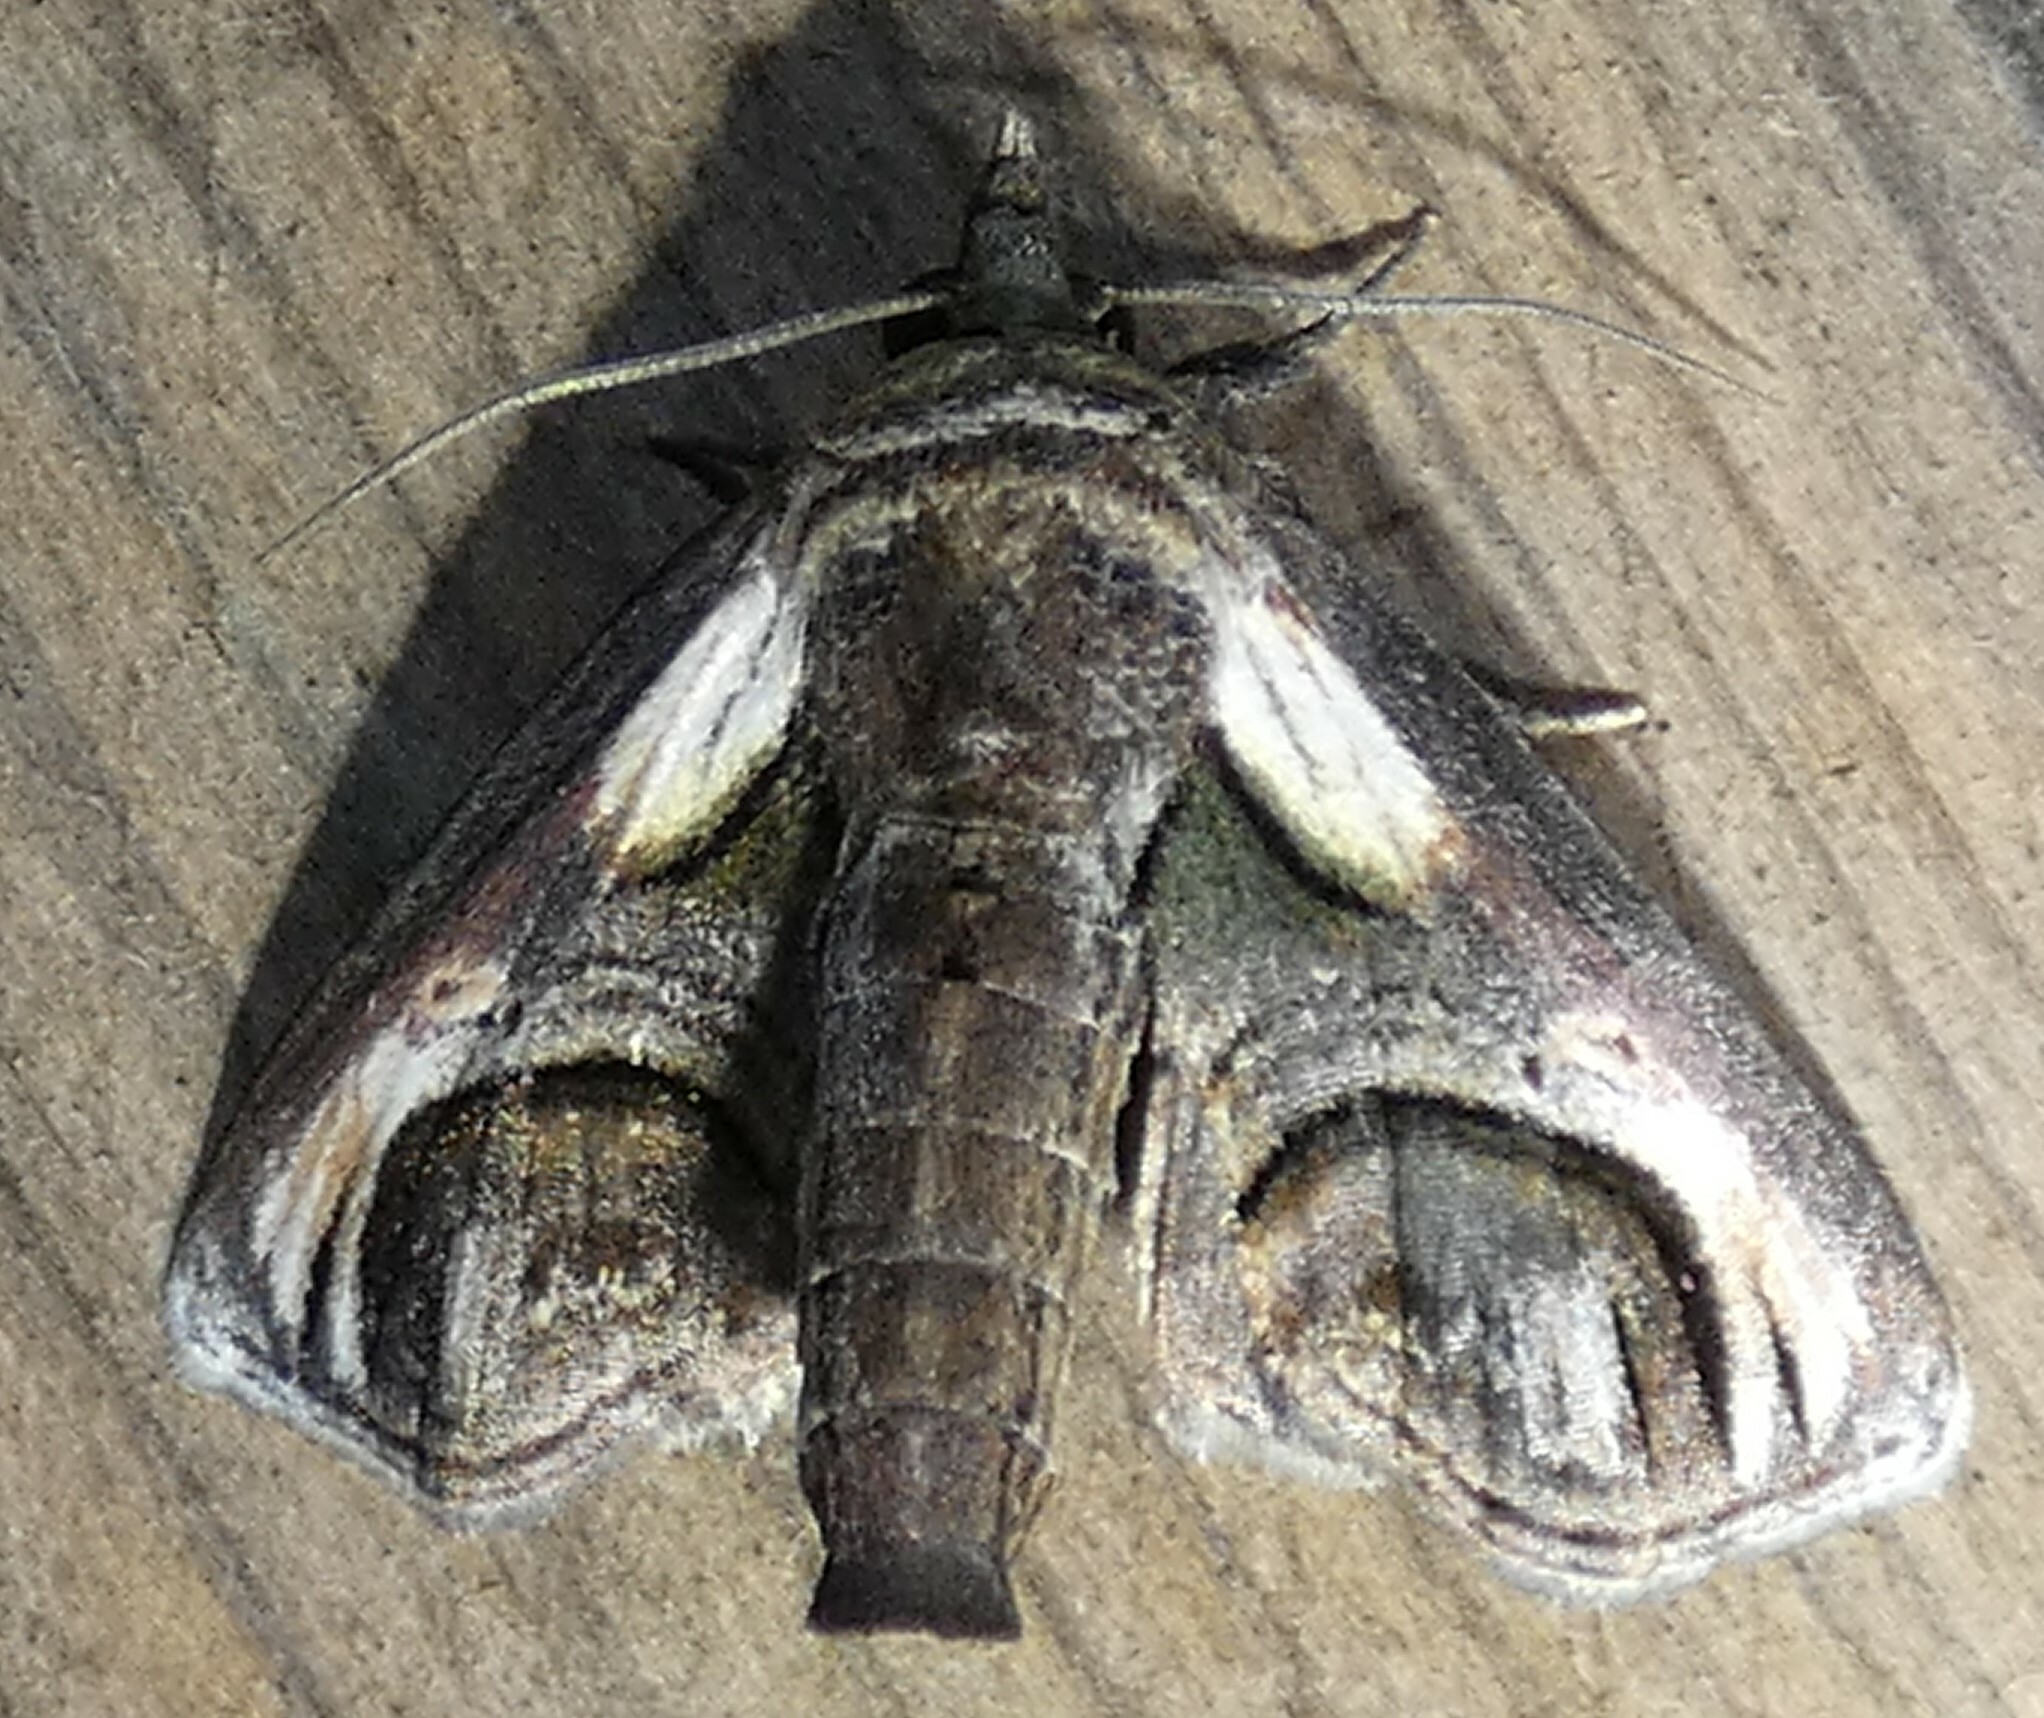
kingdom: Animalia
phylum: Arthropoda
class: Insecta
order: Lepidoptera
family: Euteliidae
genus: Paectes
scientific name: Paectes oculatrix
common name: Eyed paectes moth
